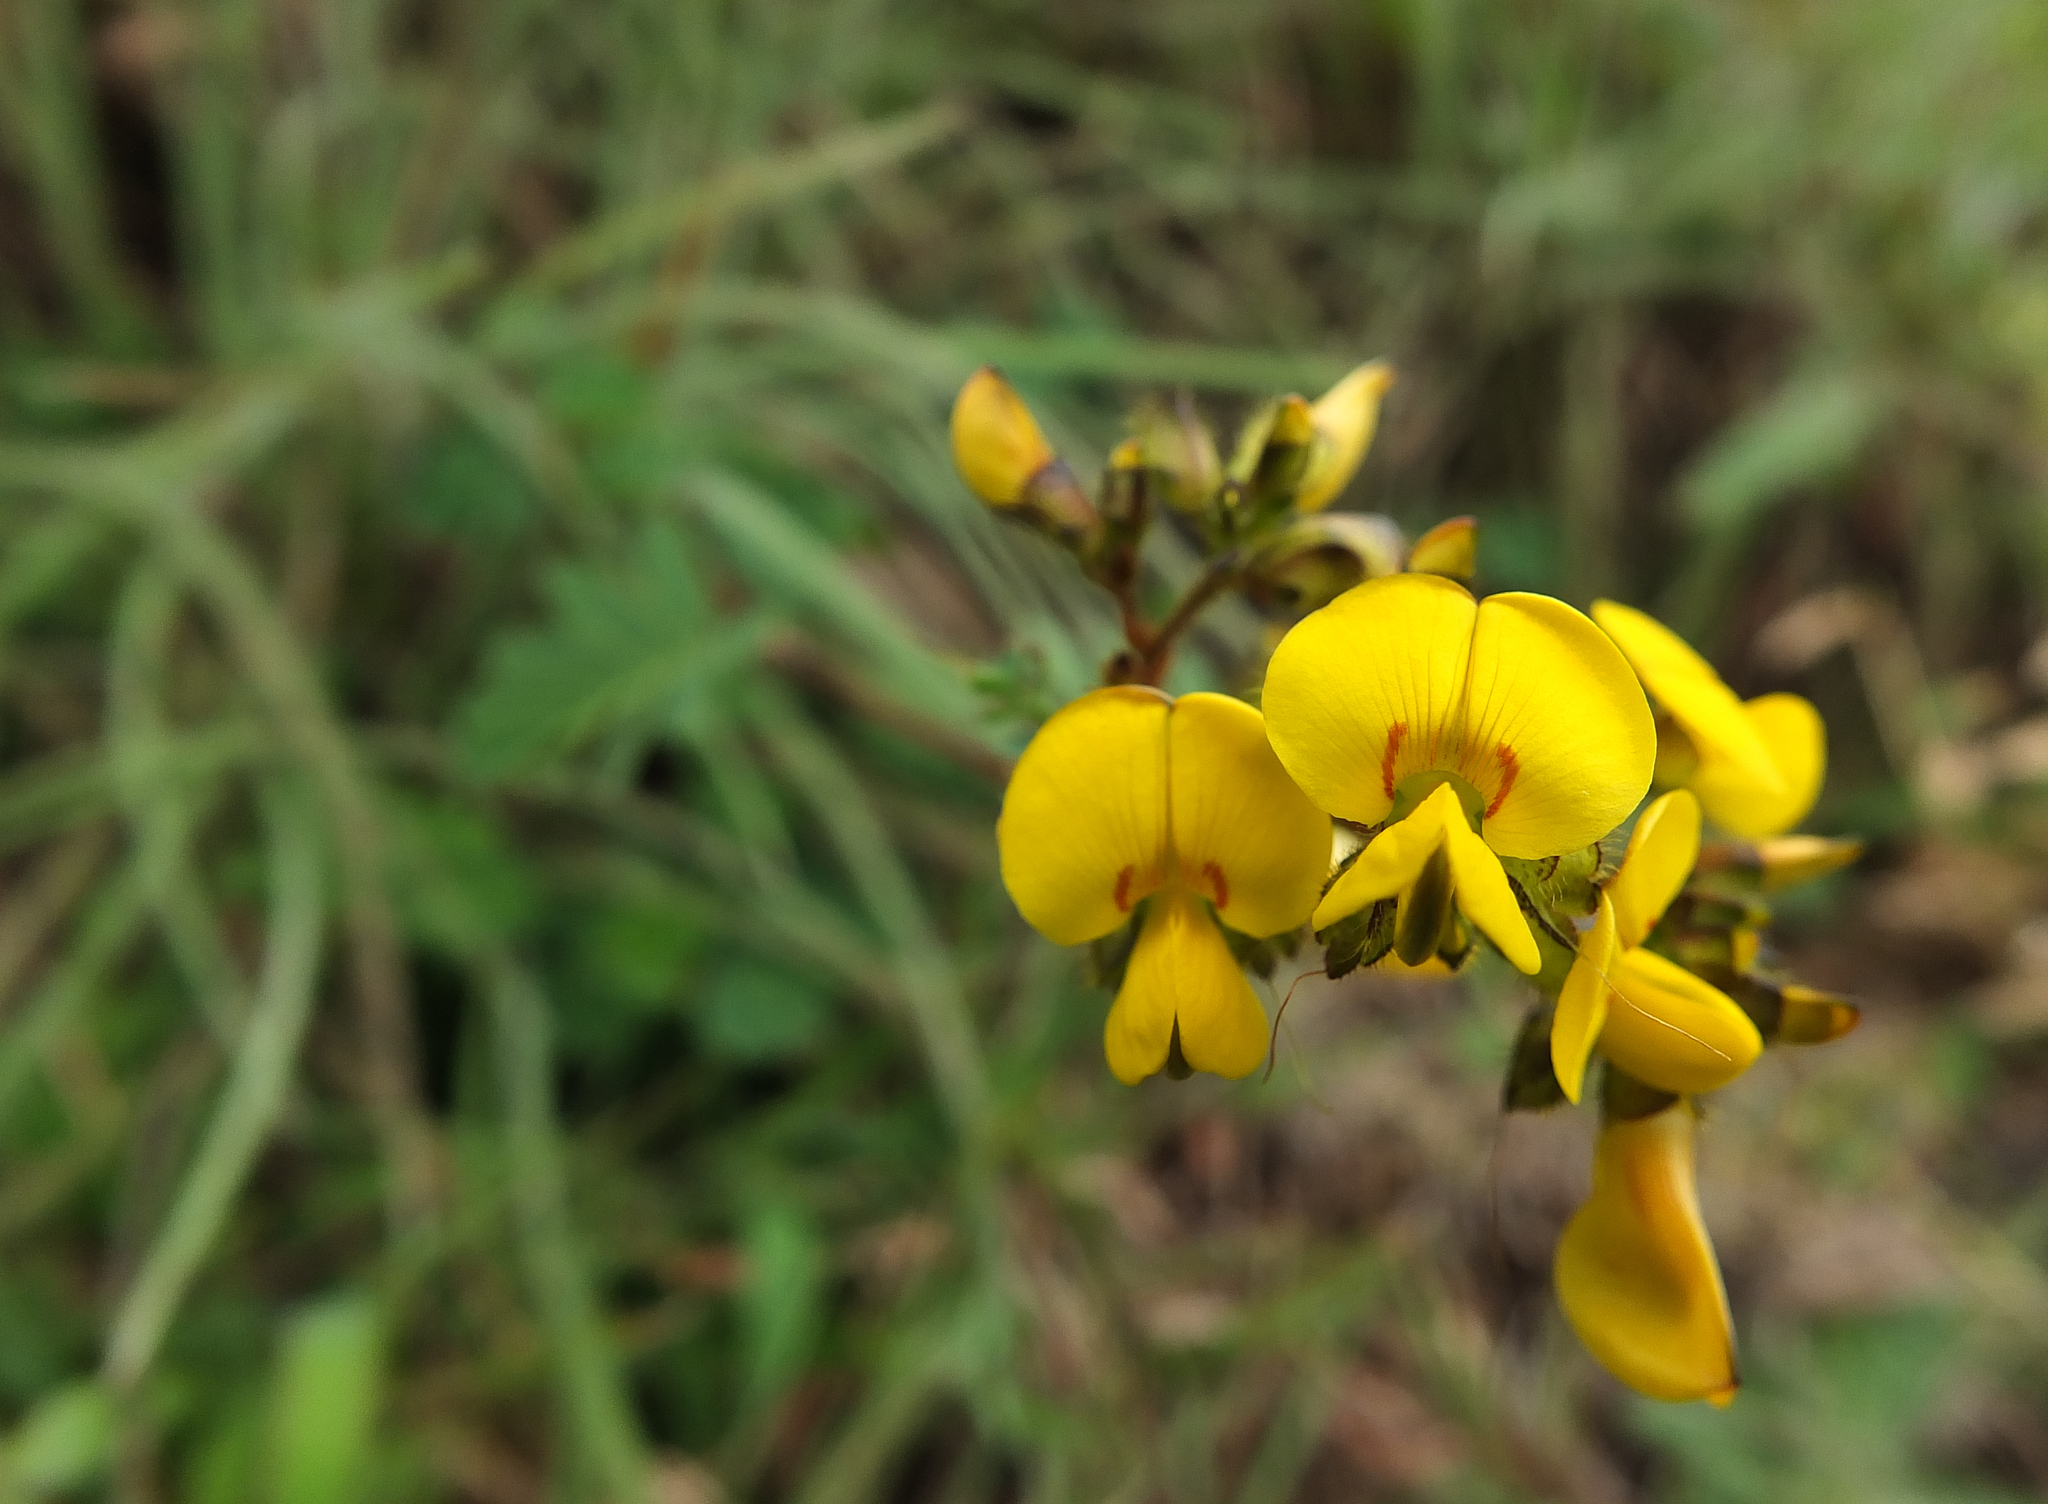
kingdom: Plantae
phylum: Tracheophyta
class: Magnoliopsida
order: Fabales
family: Fabaceae
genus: Smithia
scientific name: Smithia blanda
